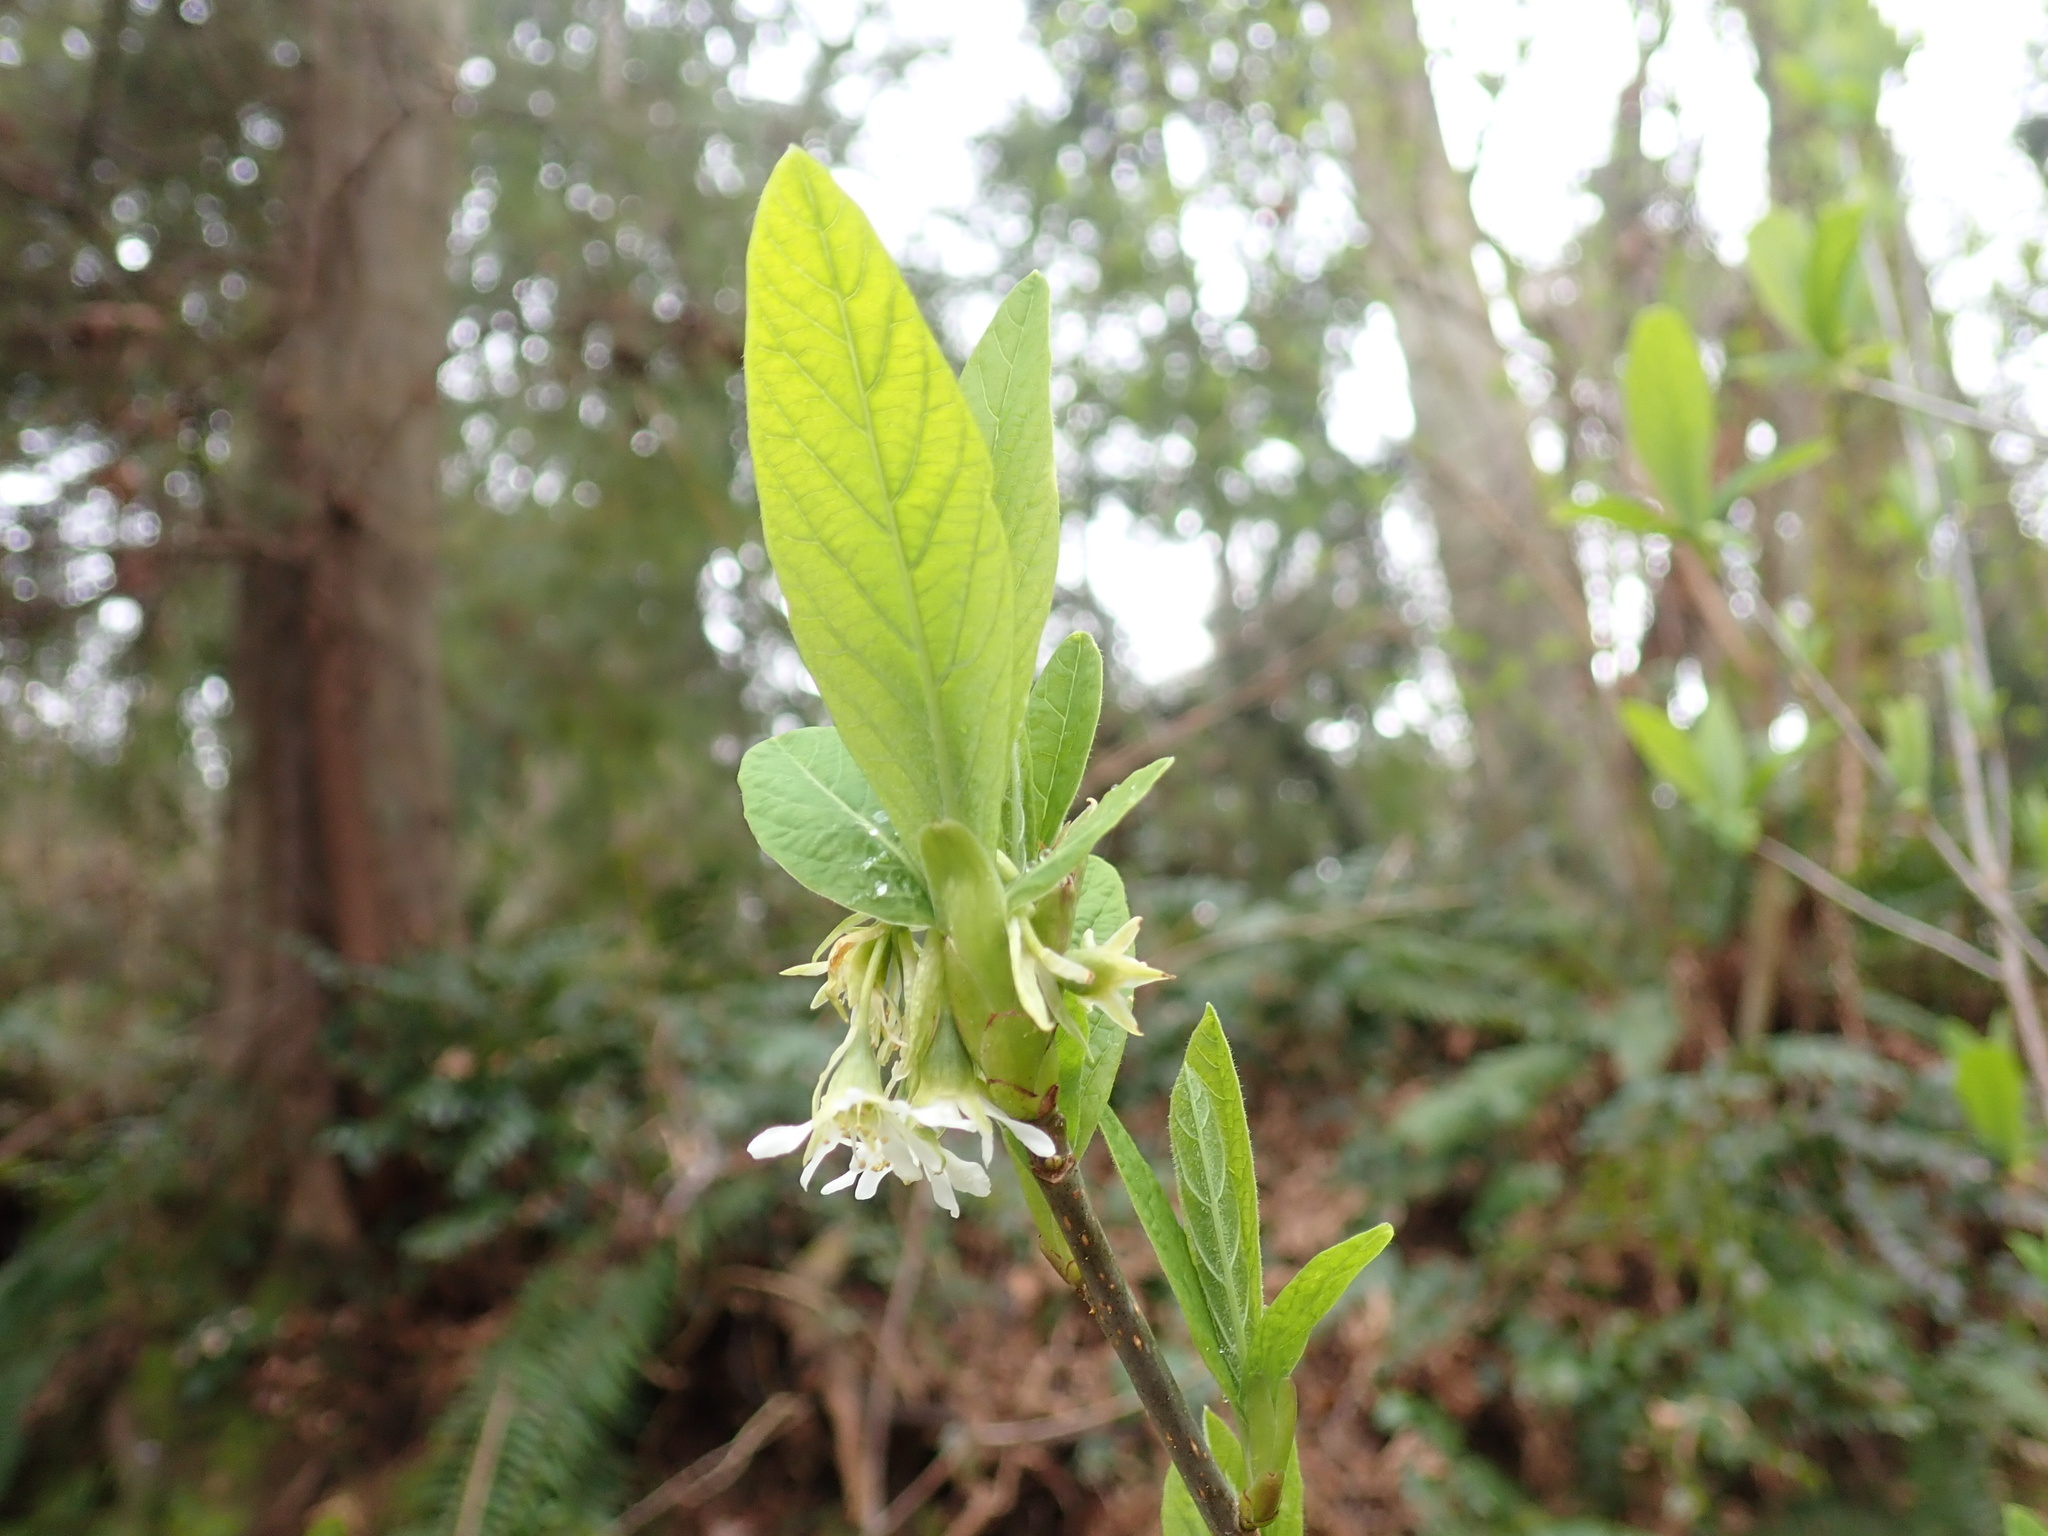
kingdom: Plantae
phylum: Tracheophyta
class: Magnoliopsida
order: Rosales
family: Rosaceae
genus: Oemleria
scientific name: Oemleria cerasiformis
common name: Osoberry
